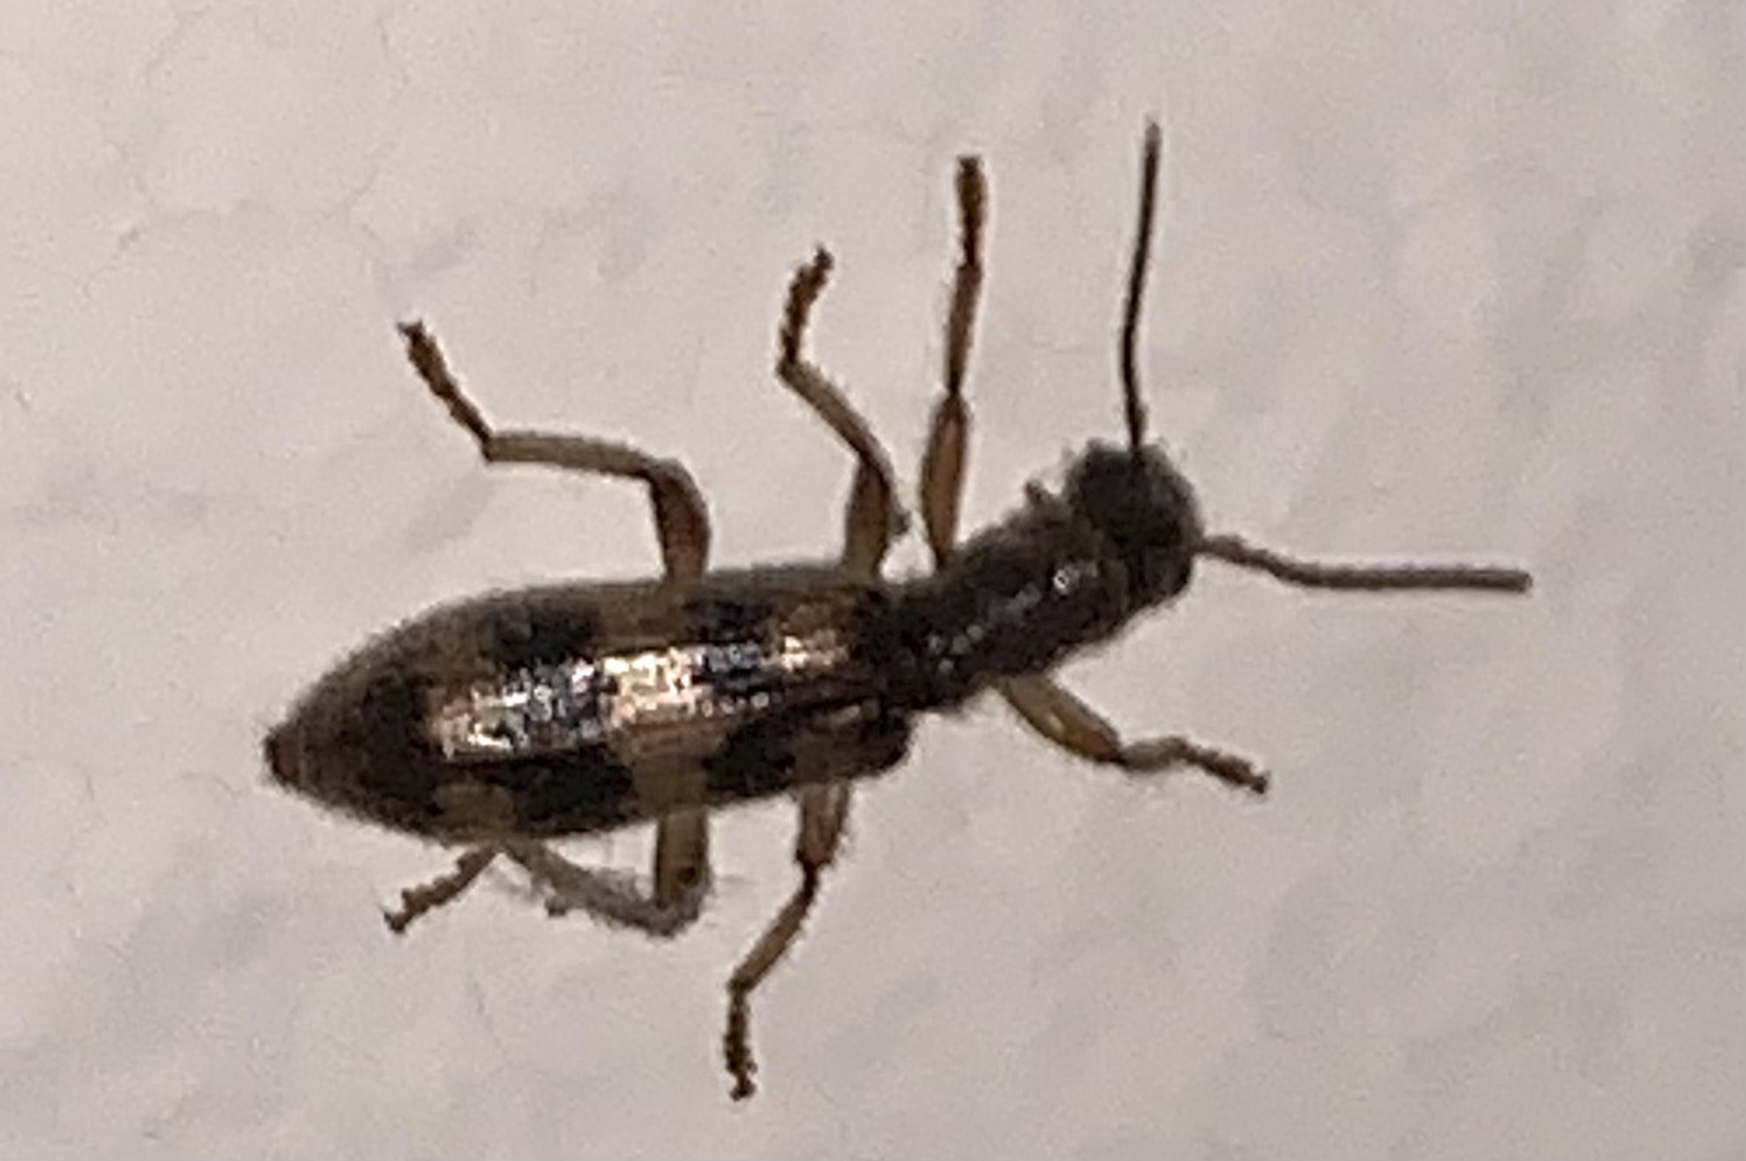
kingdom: Animalia
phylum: Arthropoda
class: Insecta
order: Coleoptera
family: Cleridae
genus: Cymatodera
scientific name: Cymatodera undulata
